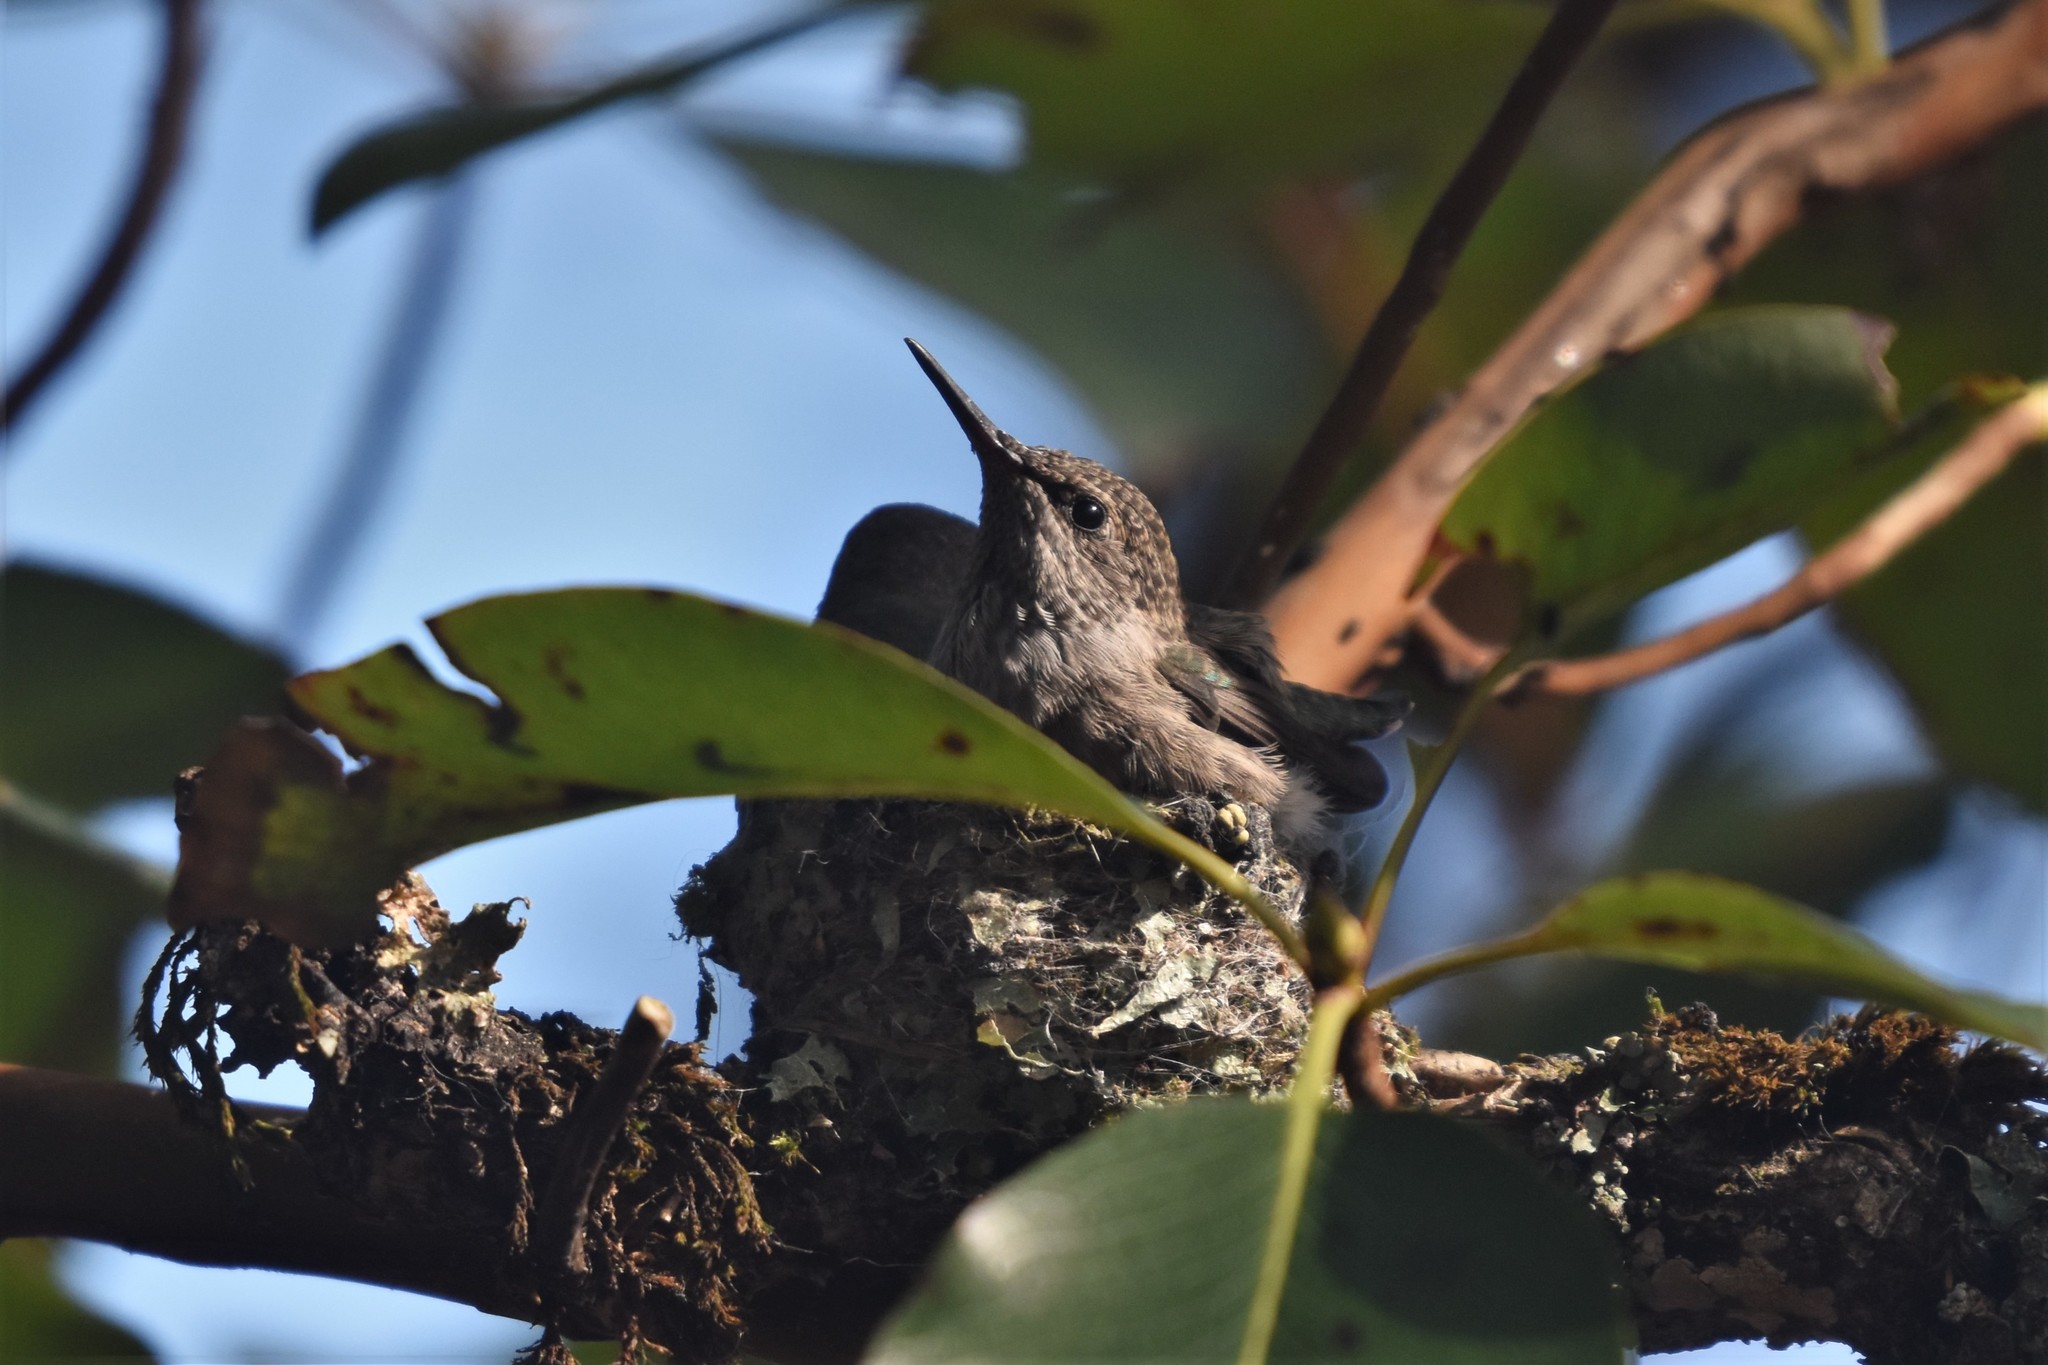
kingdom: Animalia
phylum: Chordata
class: Aves
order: Apodiformes
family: Trochilidae
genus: Calypte
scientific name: Calypte anna
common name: Anna's hummingbird
